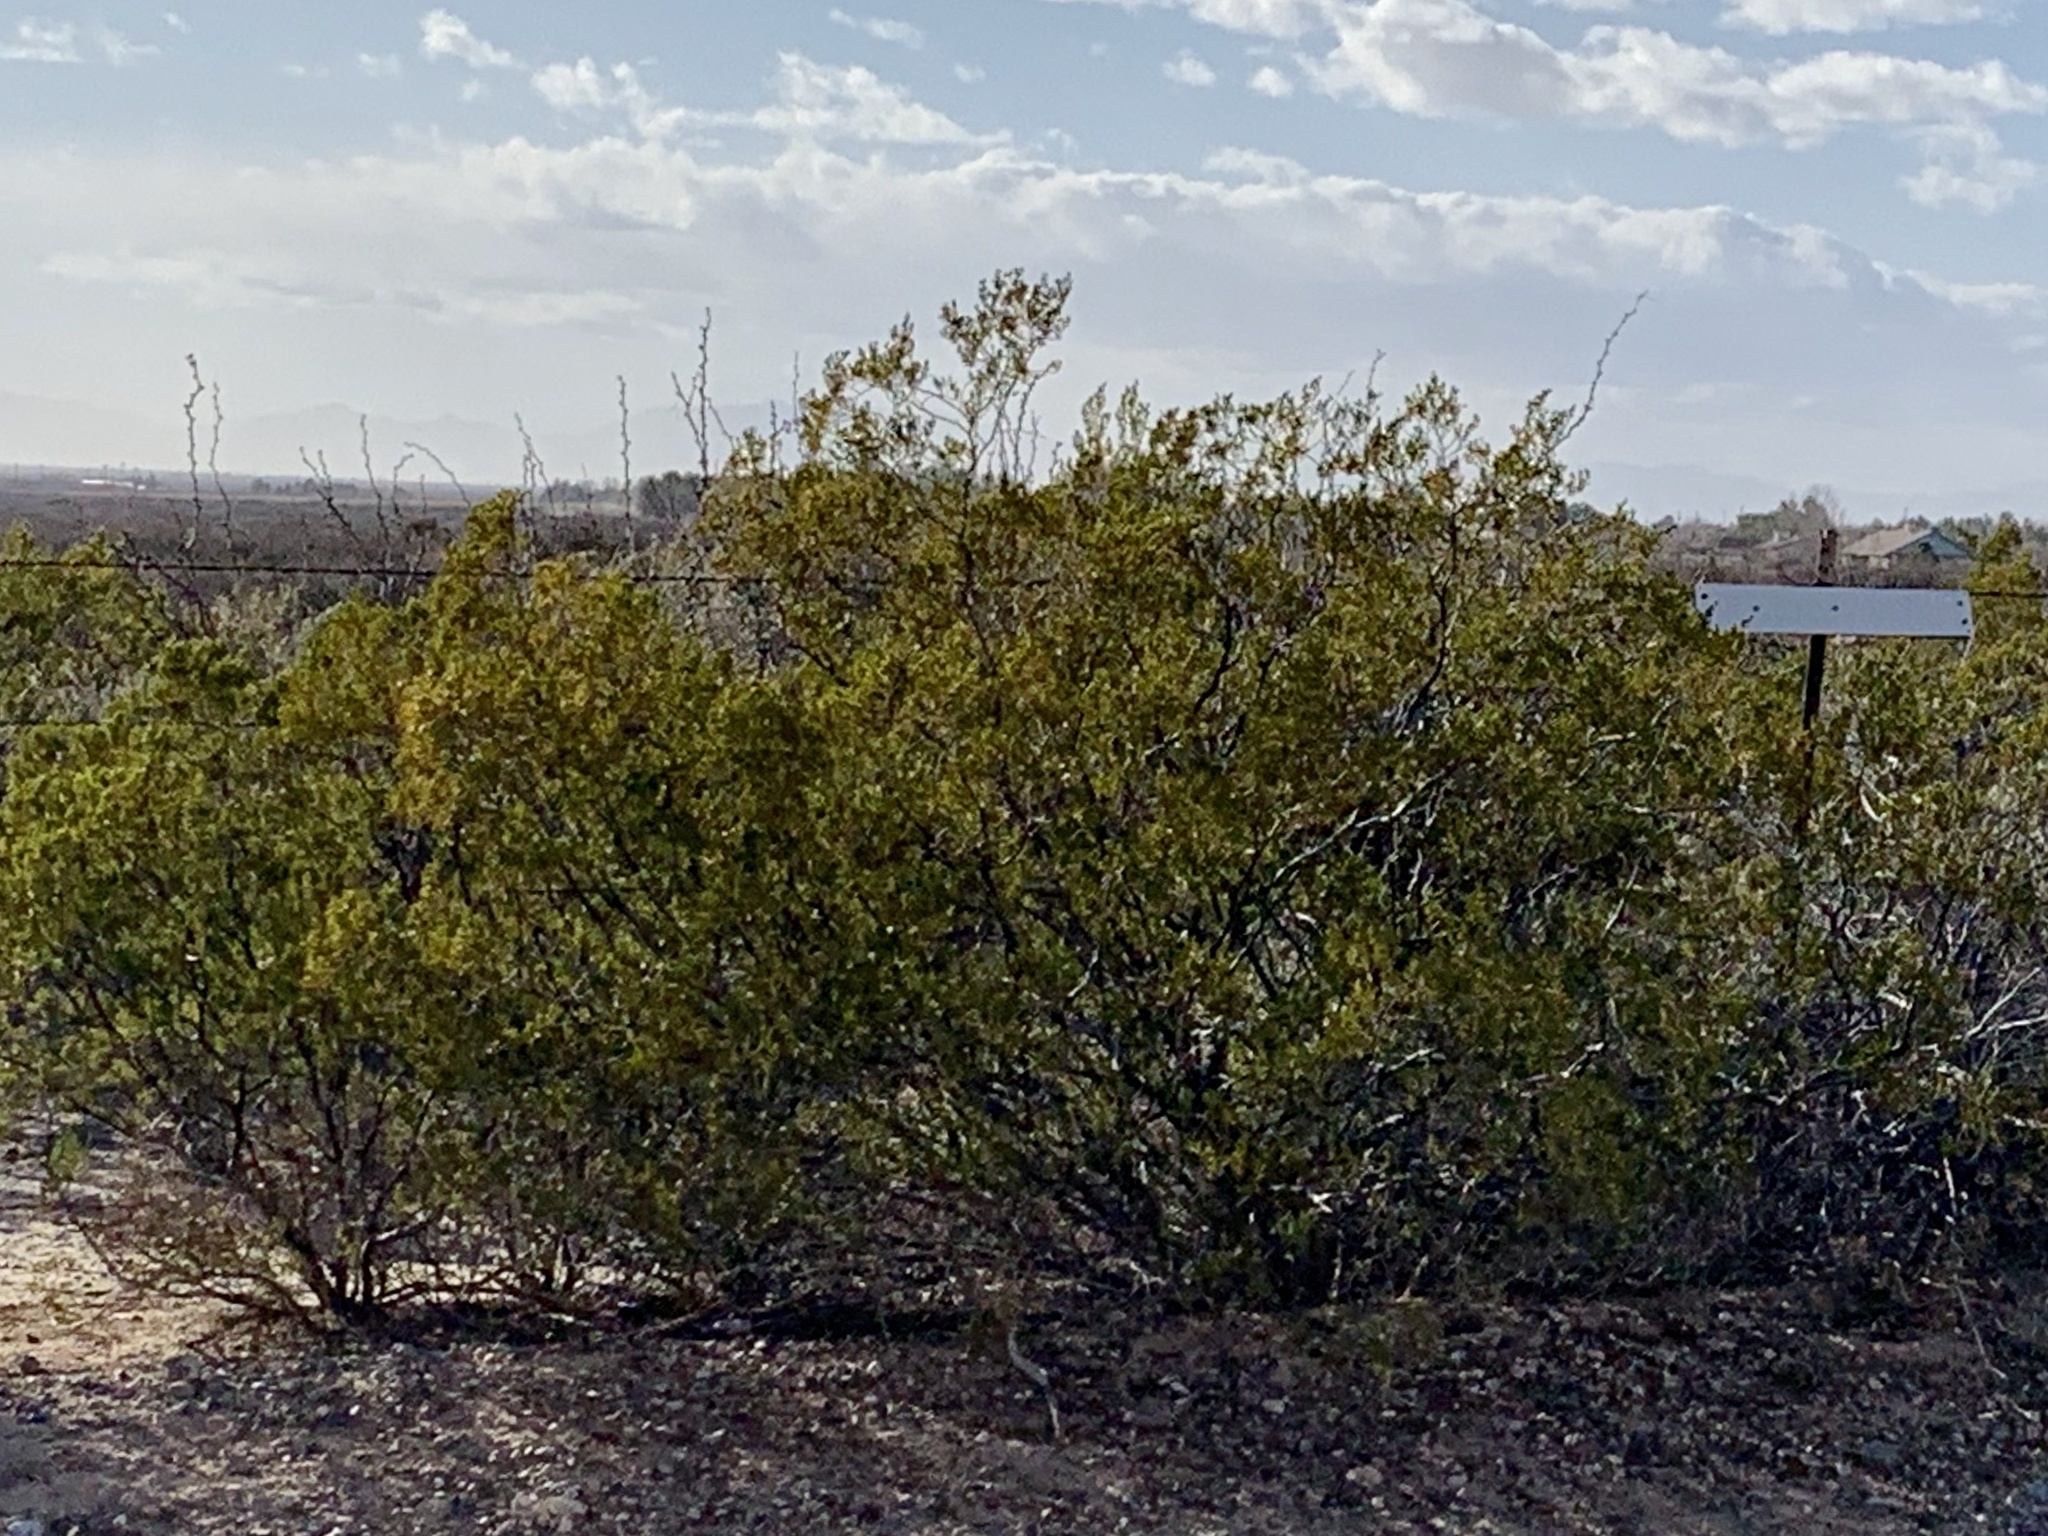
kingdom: Plantae
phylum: Tracheophyta
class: Magnoliopsida
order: Zygophyllales
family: Zygophyllaceae
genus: Larrea
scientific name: Larrea tridentata
